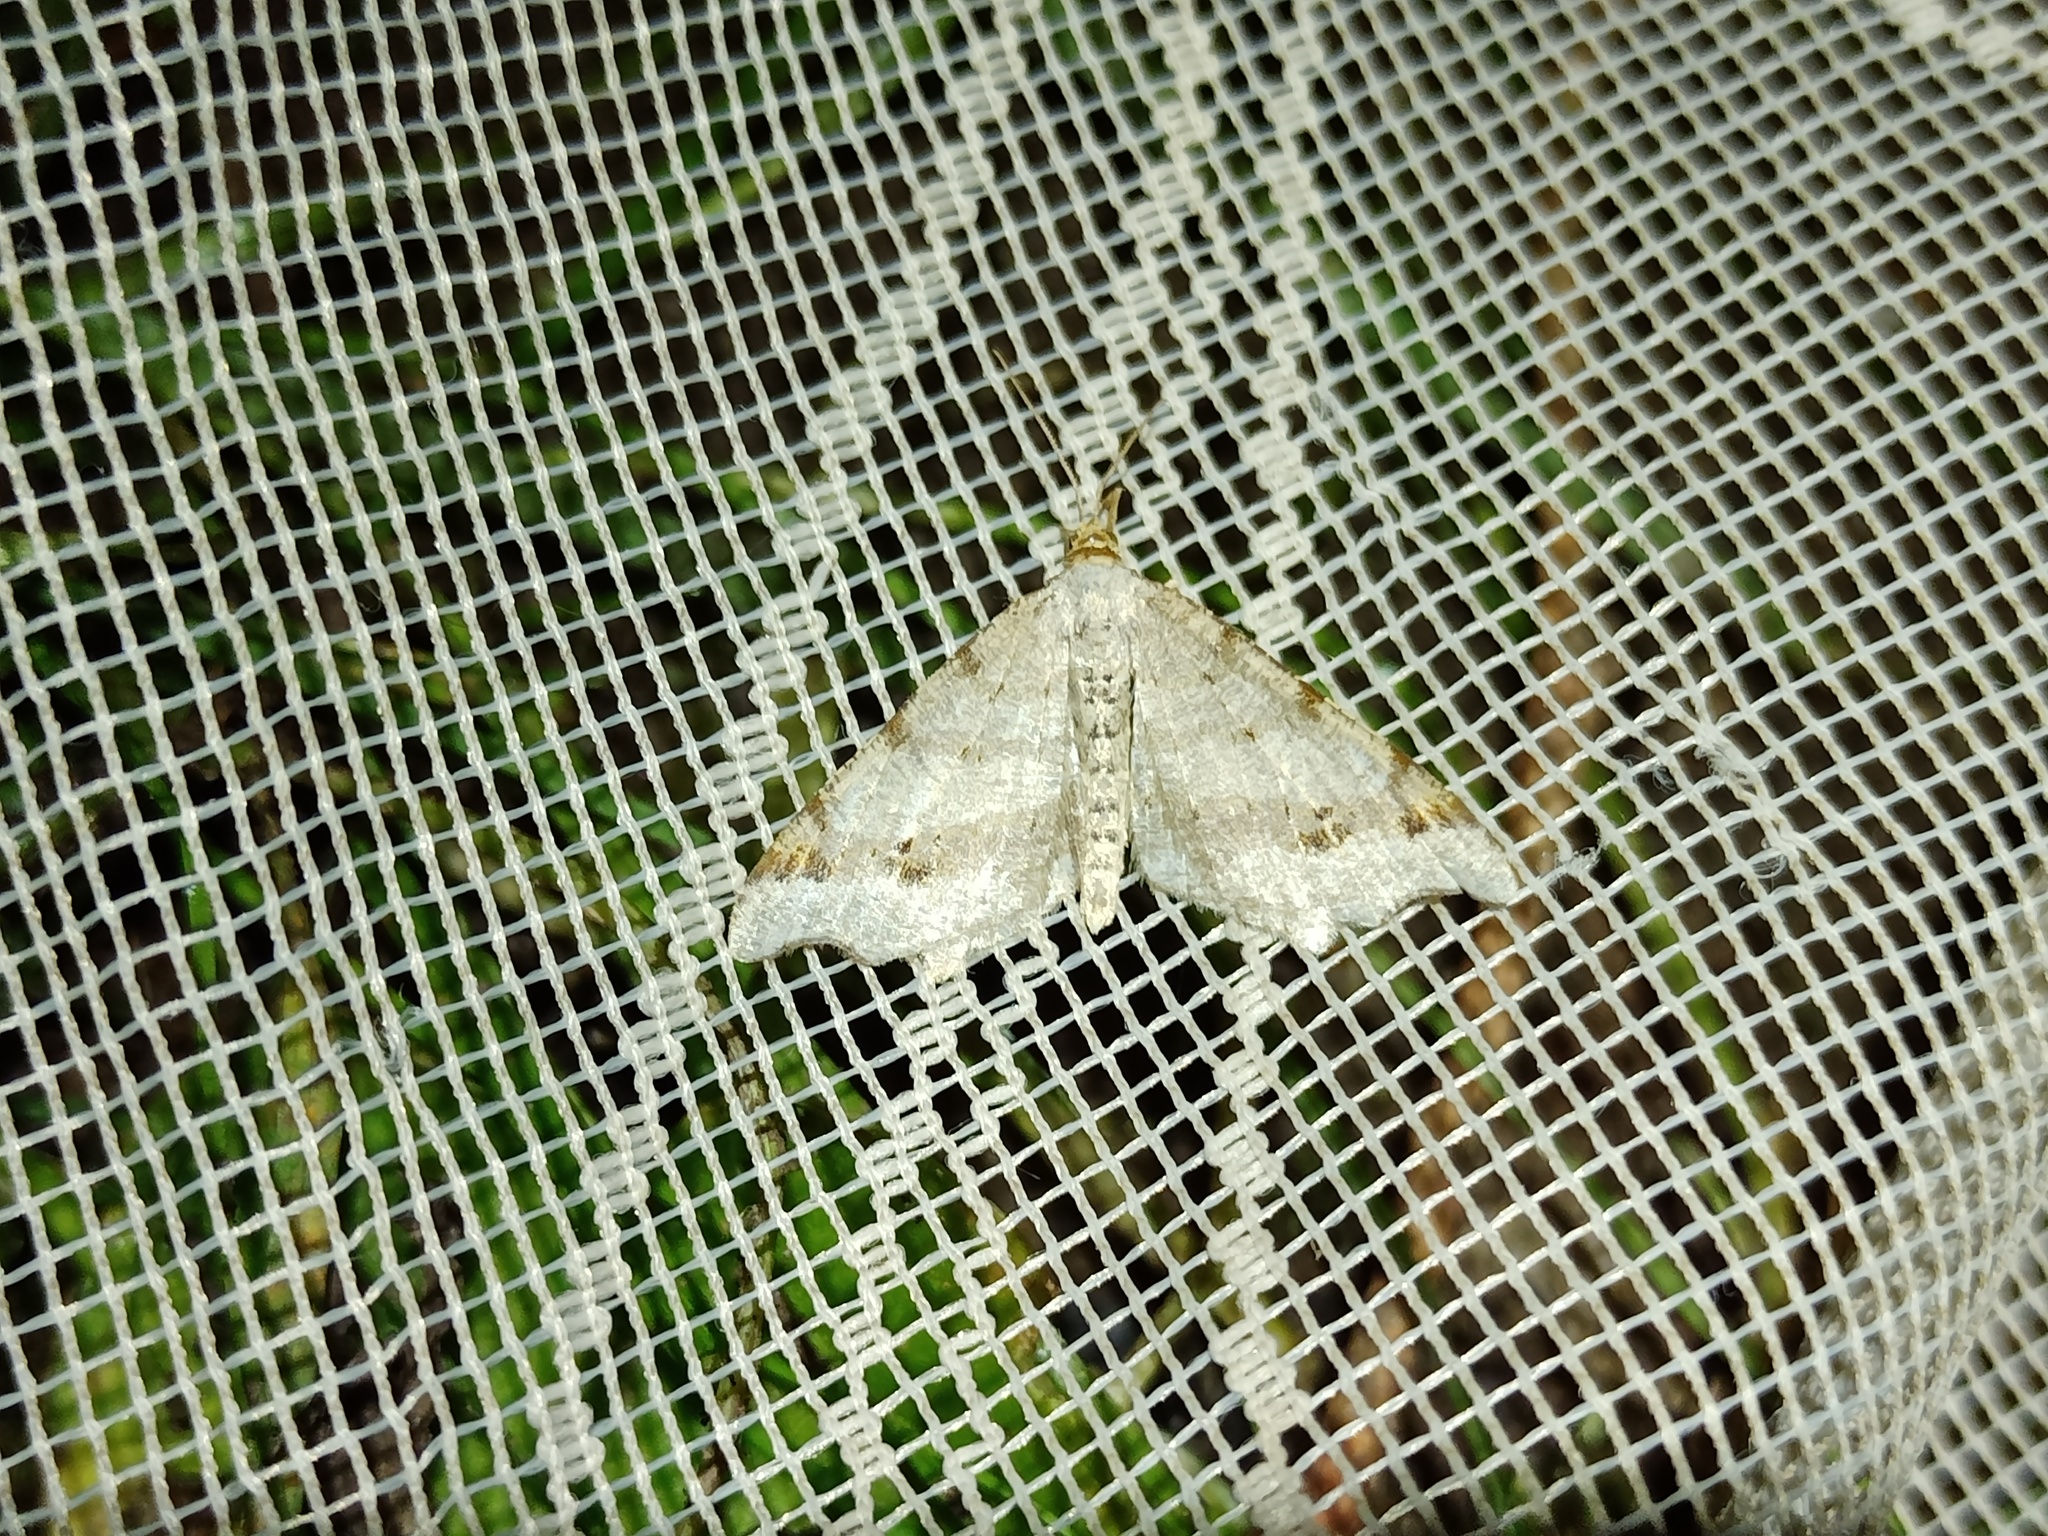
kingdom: Animalia
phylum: Arthropoda
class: Insecta
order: Lepidoptera
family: Geometridae
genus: Macaria
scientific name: Macaria alternata
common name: Sharp-angled peacock
